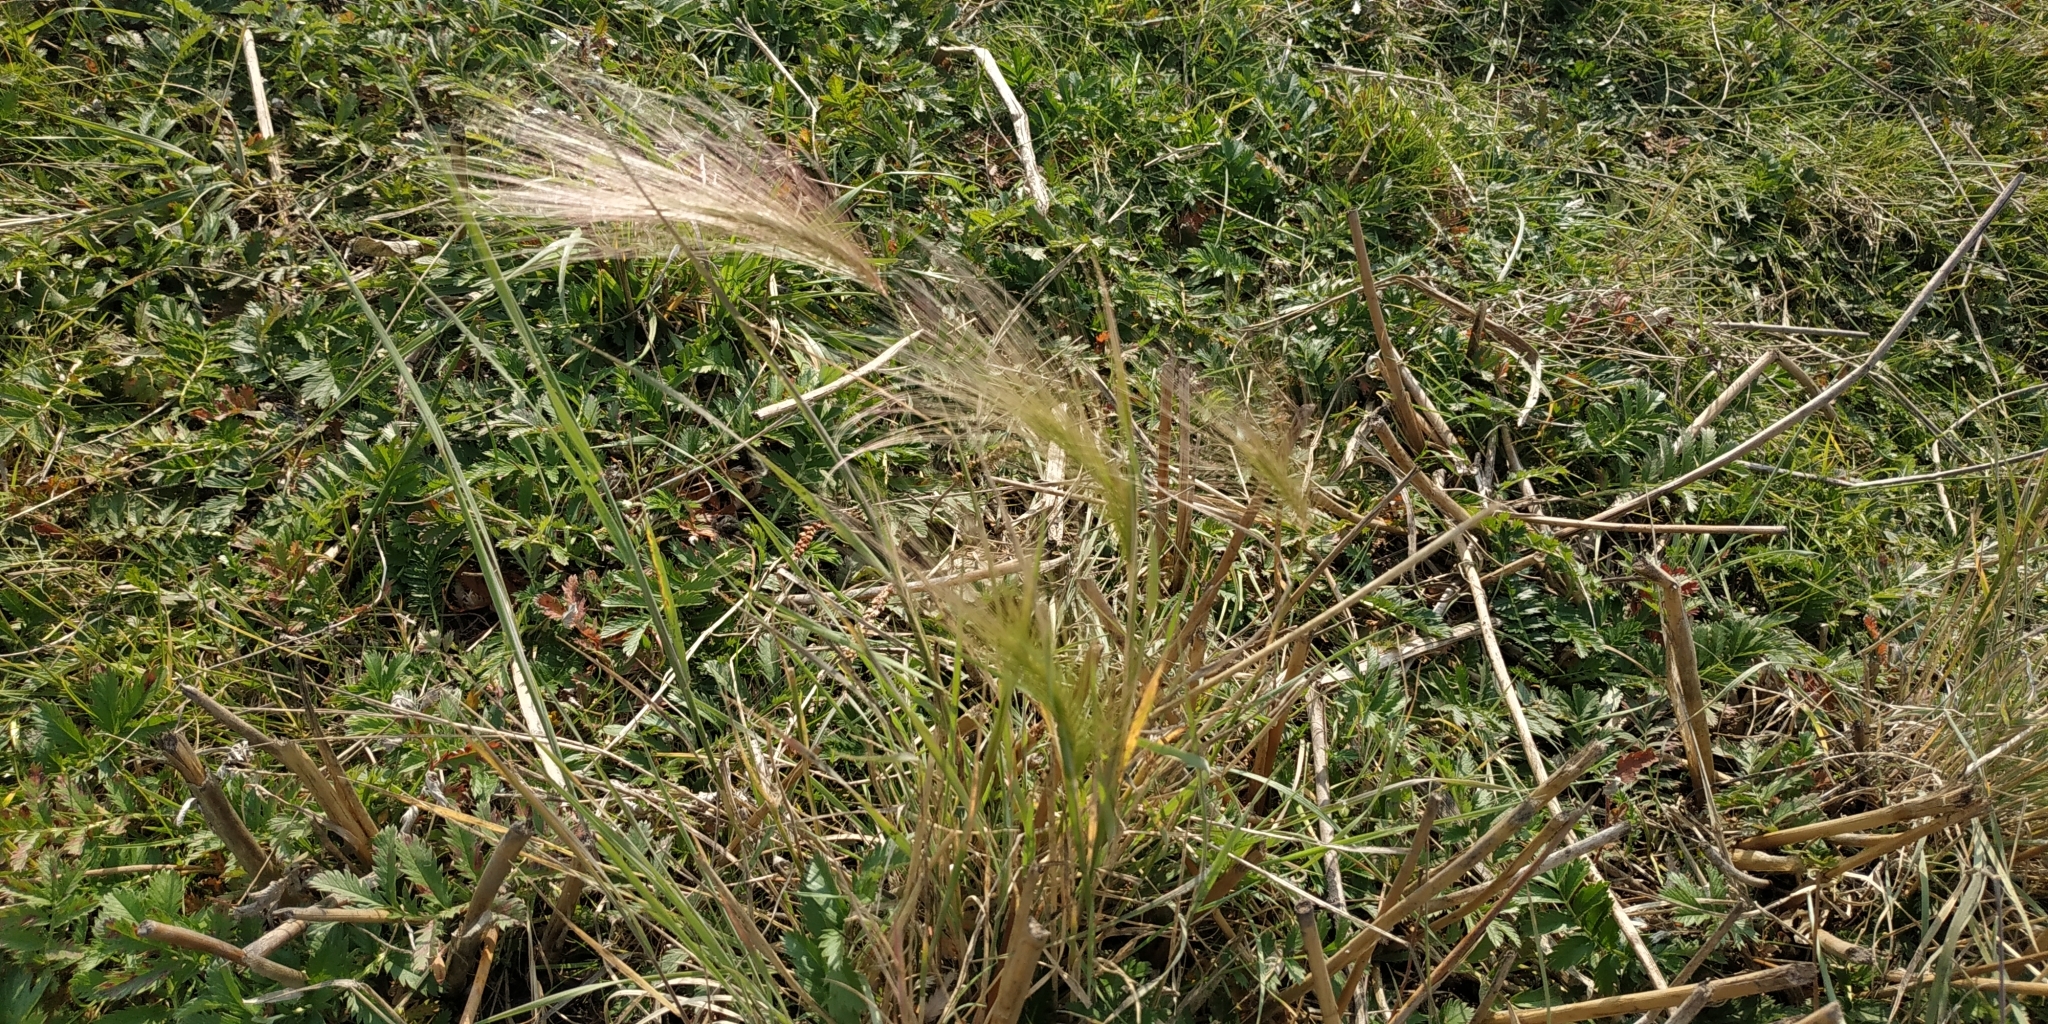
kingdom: Plantae
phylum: Tracheophyta
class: Liliopsida
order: Poales
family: Poaceae
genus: Hordeum
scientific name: Hordeum jubatum
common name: Foxtail barley
